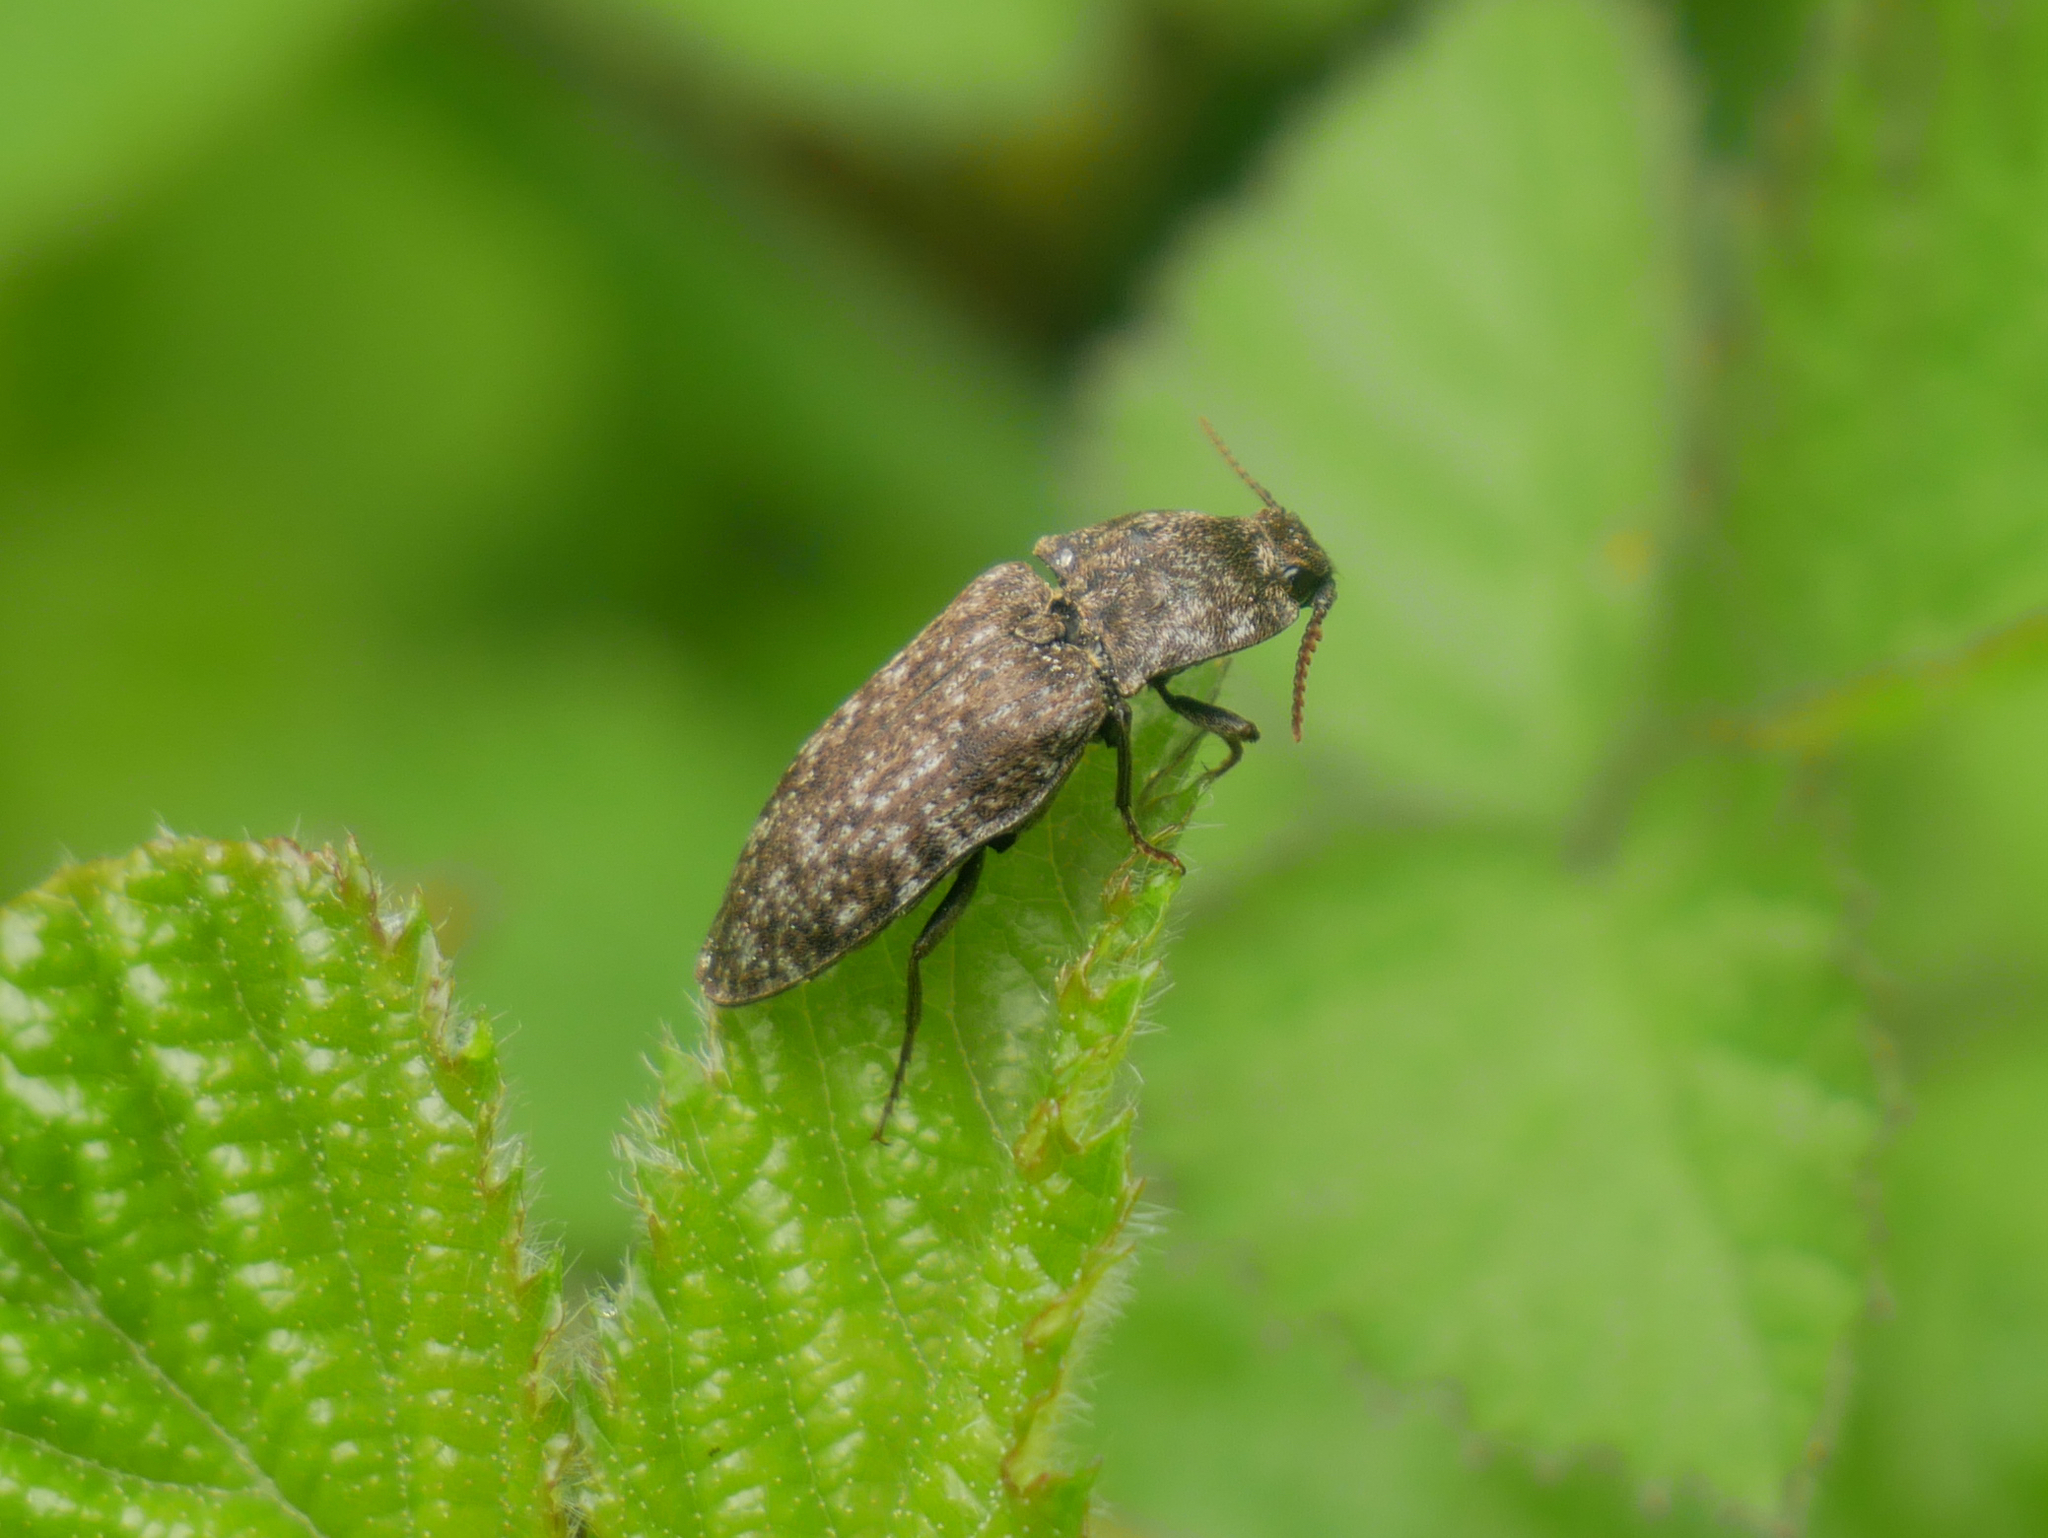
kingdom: Animalia
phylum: Arthropoda
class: Insecta
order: Coleoptera
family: Elateridae
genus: Agrypnus
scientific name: Agrypnus murinus
